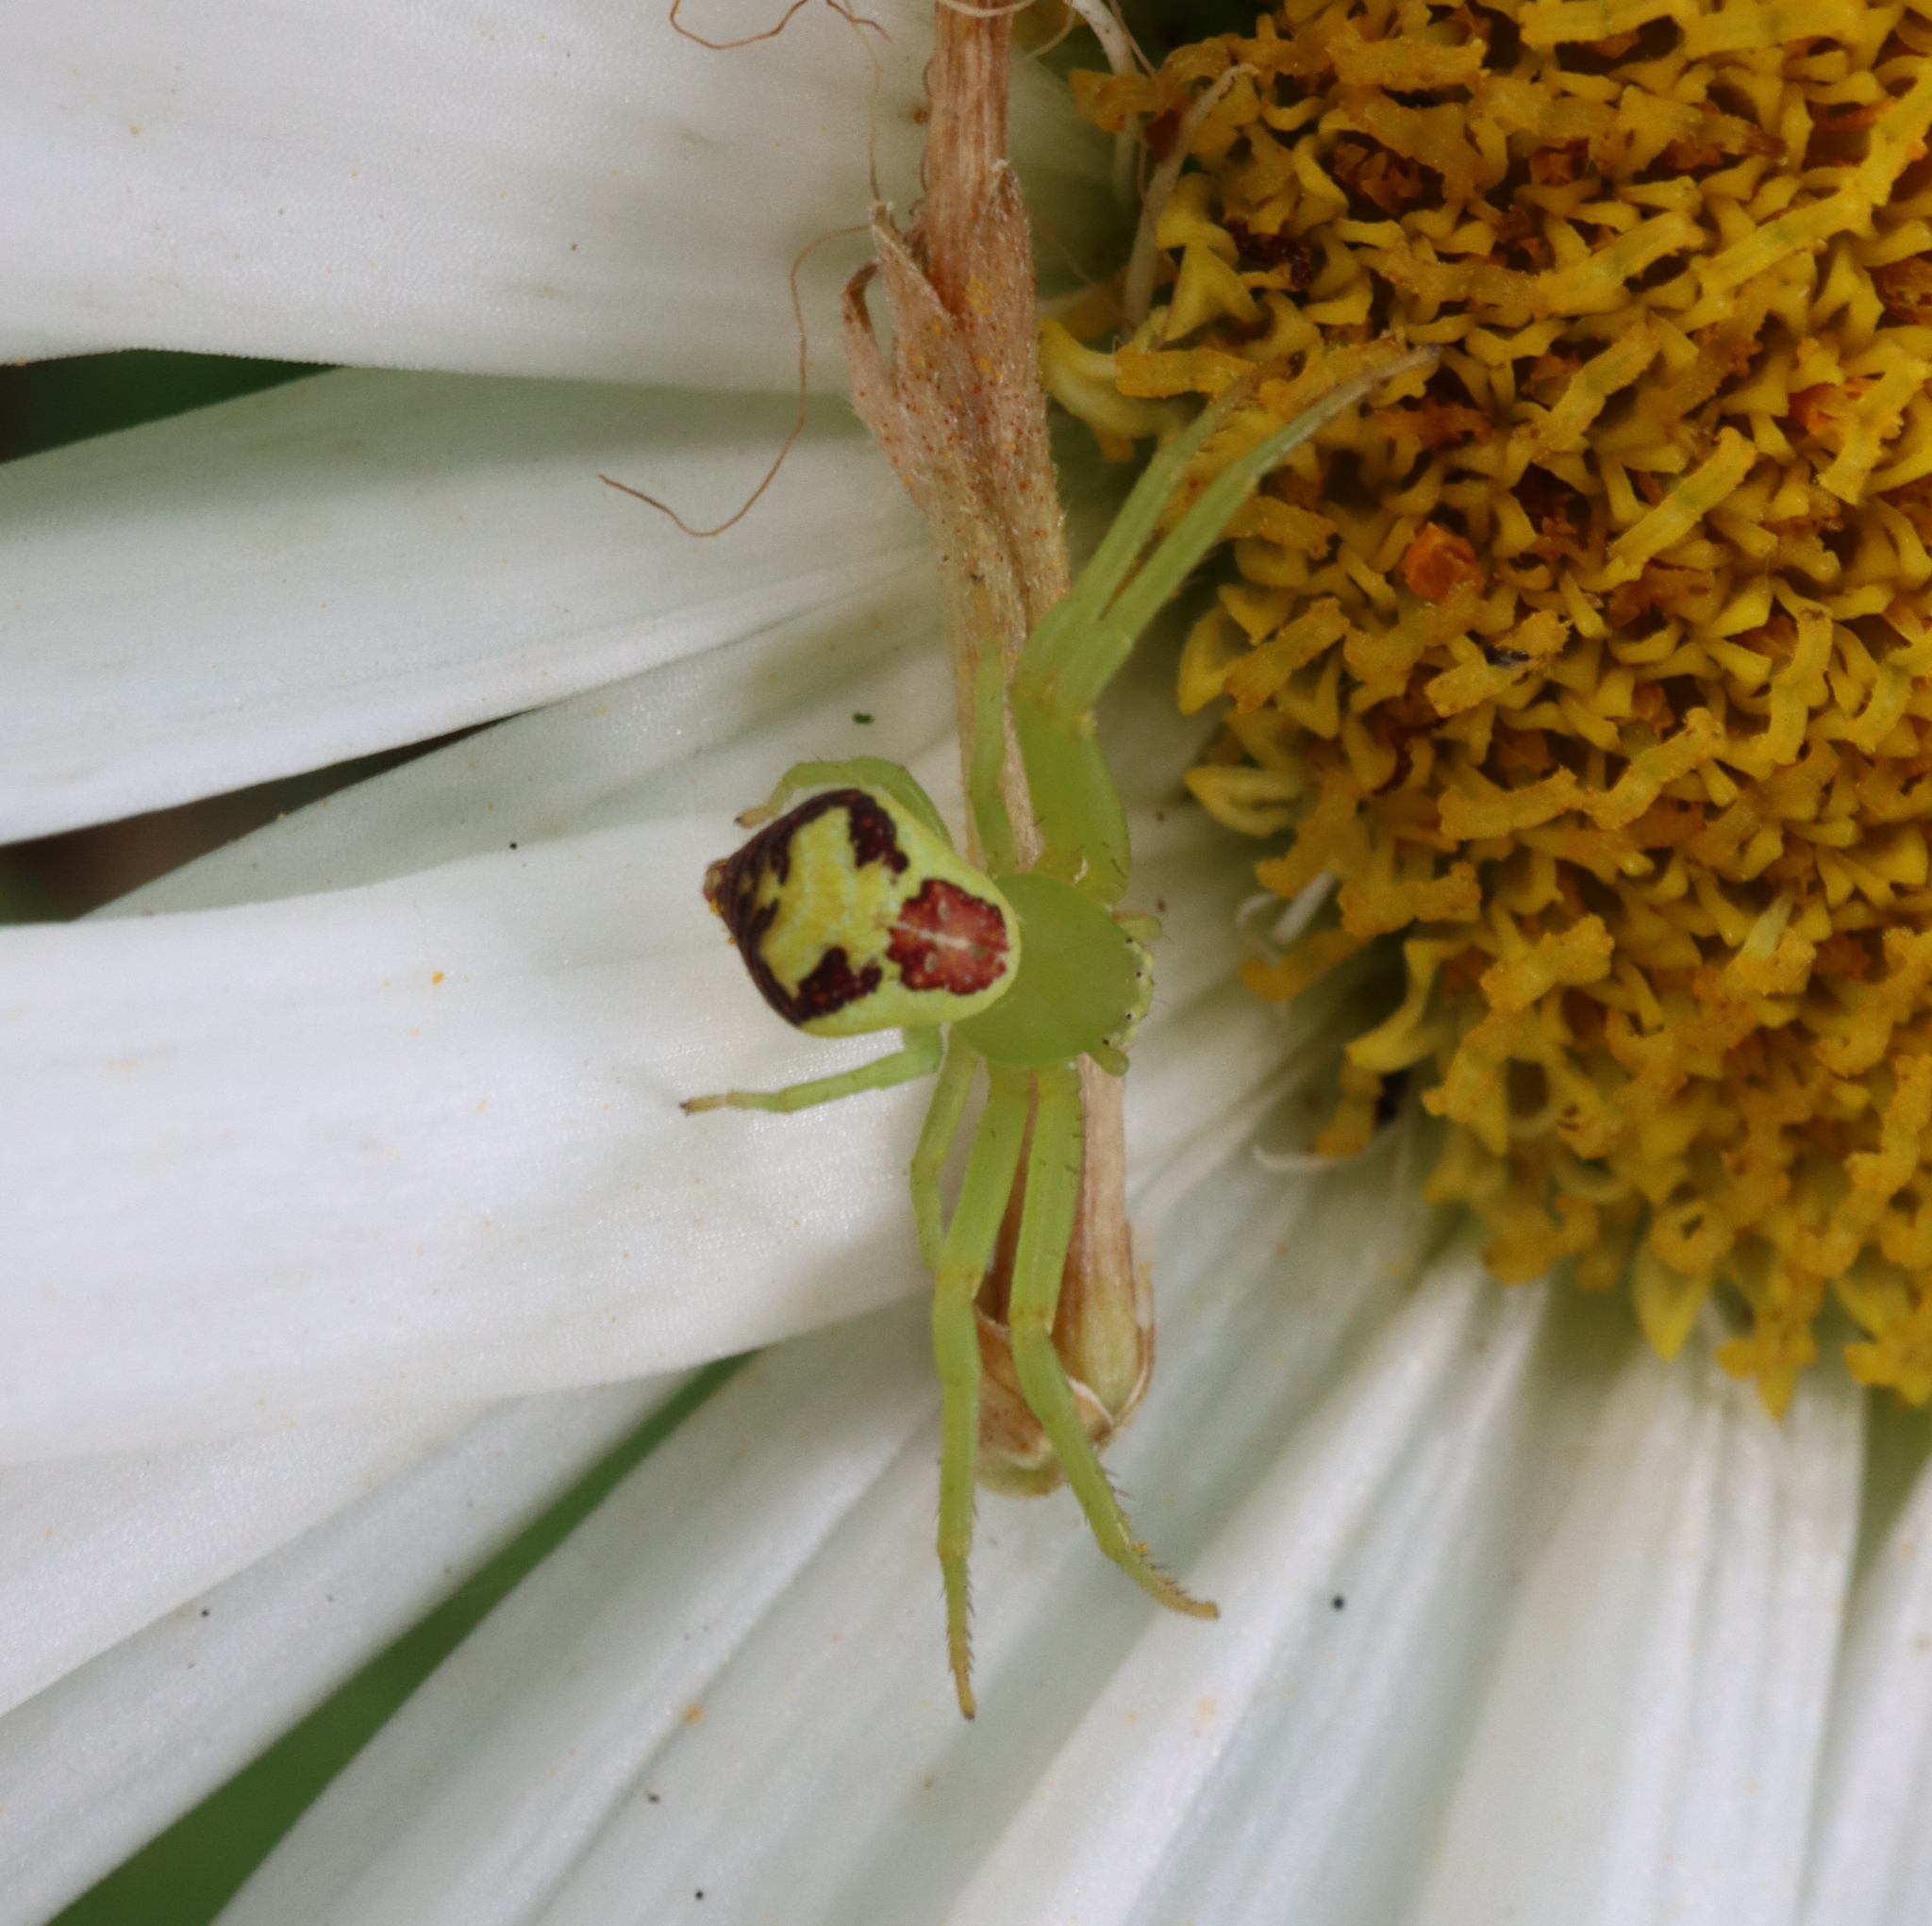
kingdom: Animalia
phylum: Arthropoda
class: Arachnida
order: Araneae
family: Thomisidae
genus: Ebrechtella
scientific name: Ebrechtella tricuspidata
